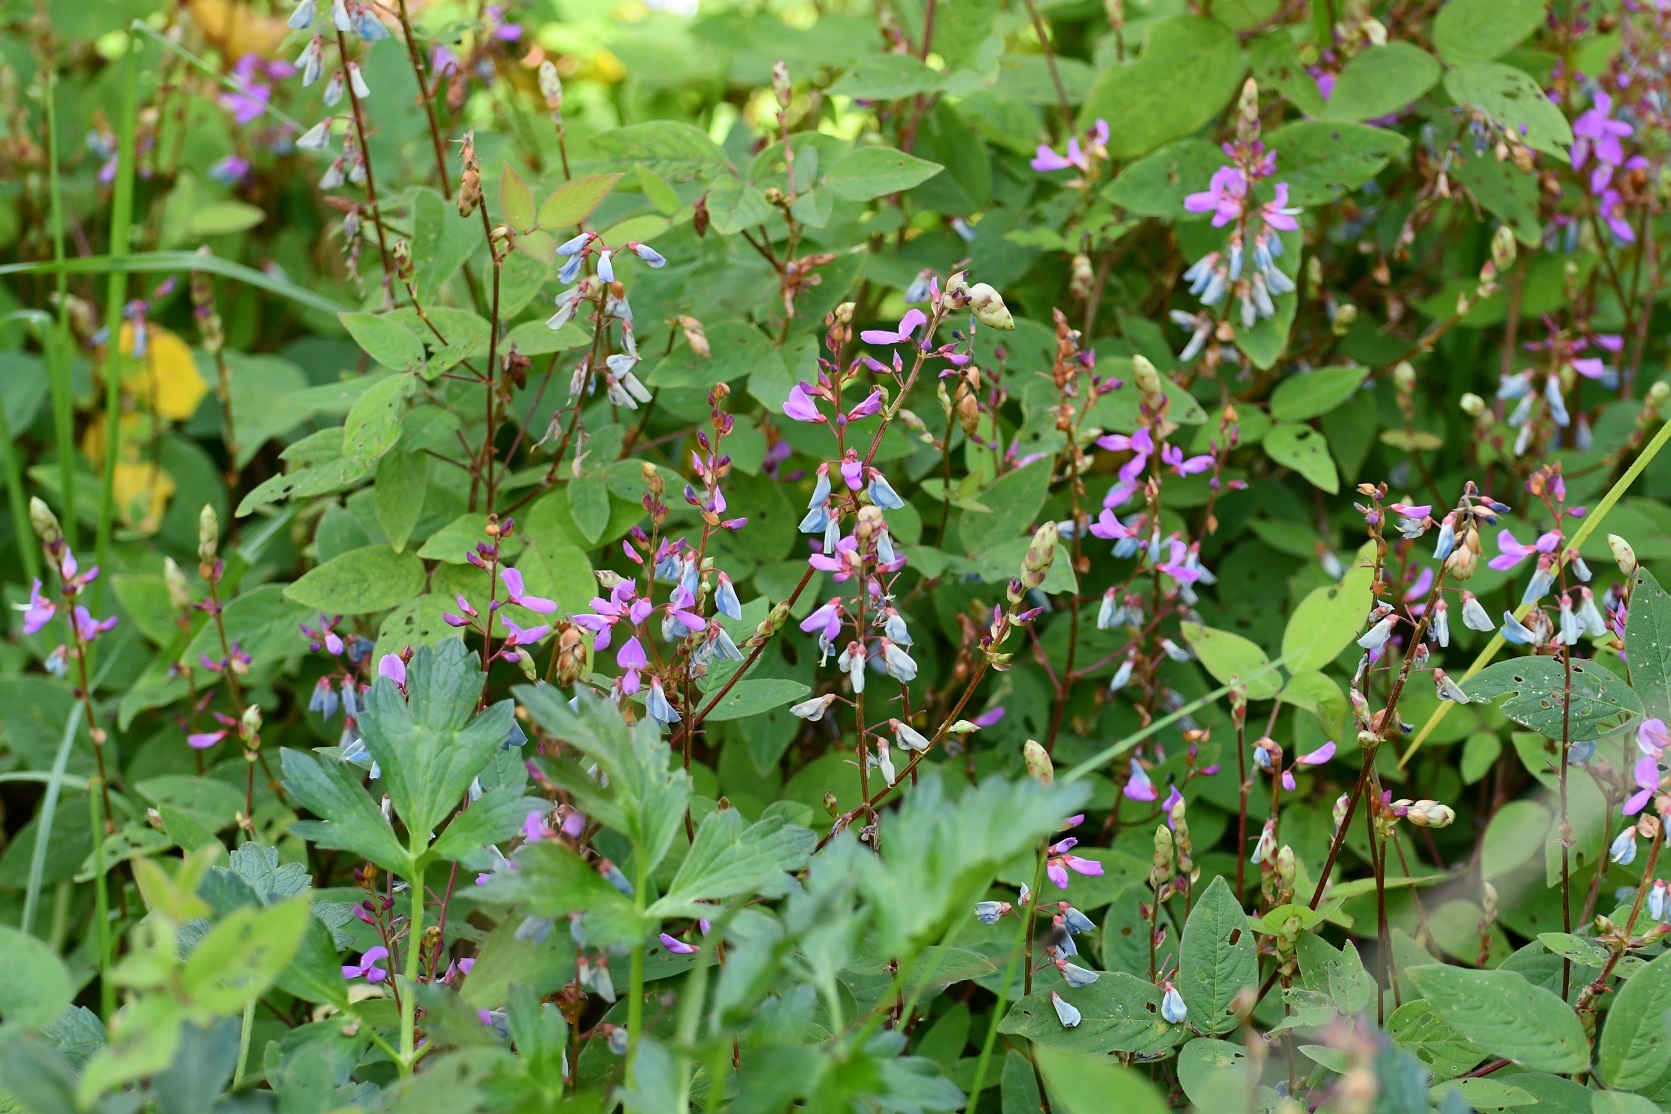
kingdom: Plantae
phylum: Tracheophyta
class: Magnoliopsida
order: Fabales
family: Fabaceae
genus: Desmodium
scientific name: Desmodium pringlei
